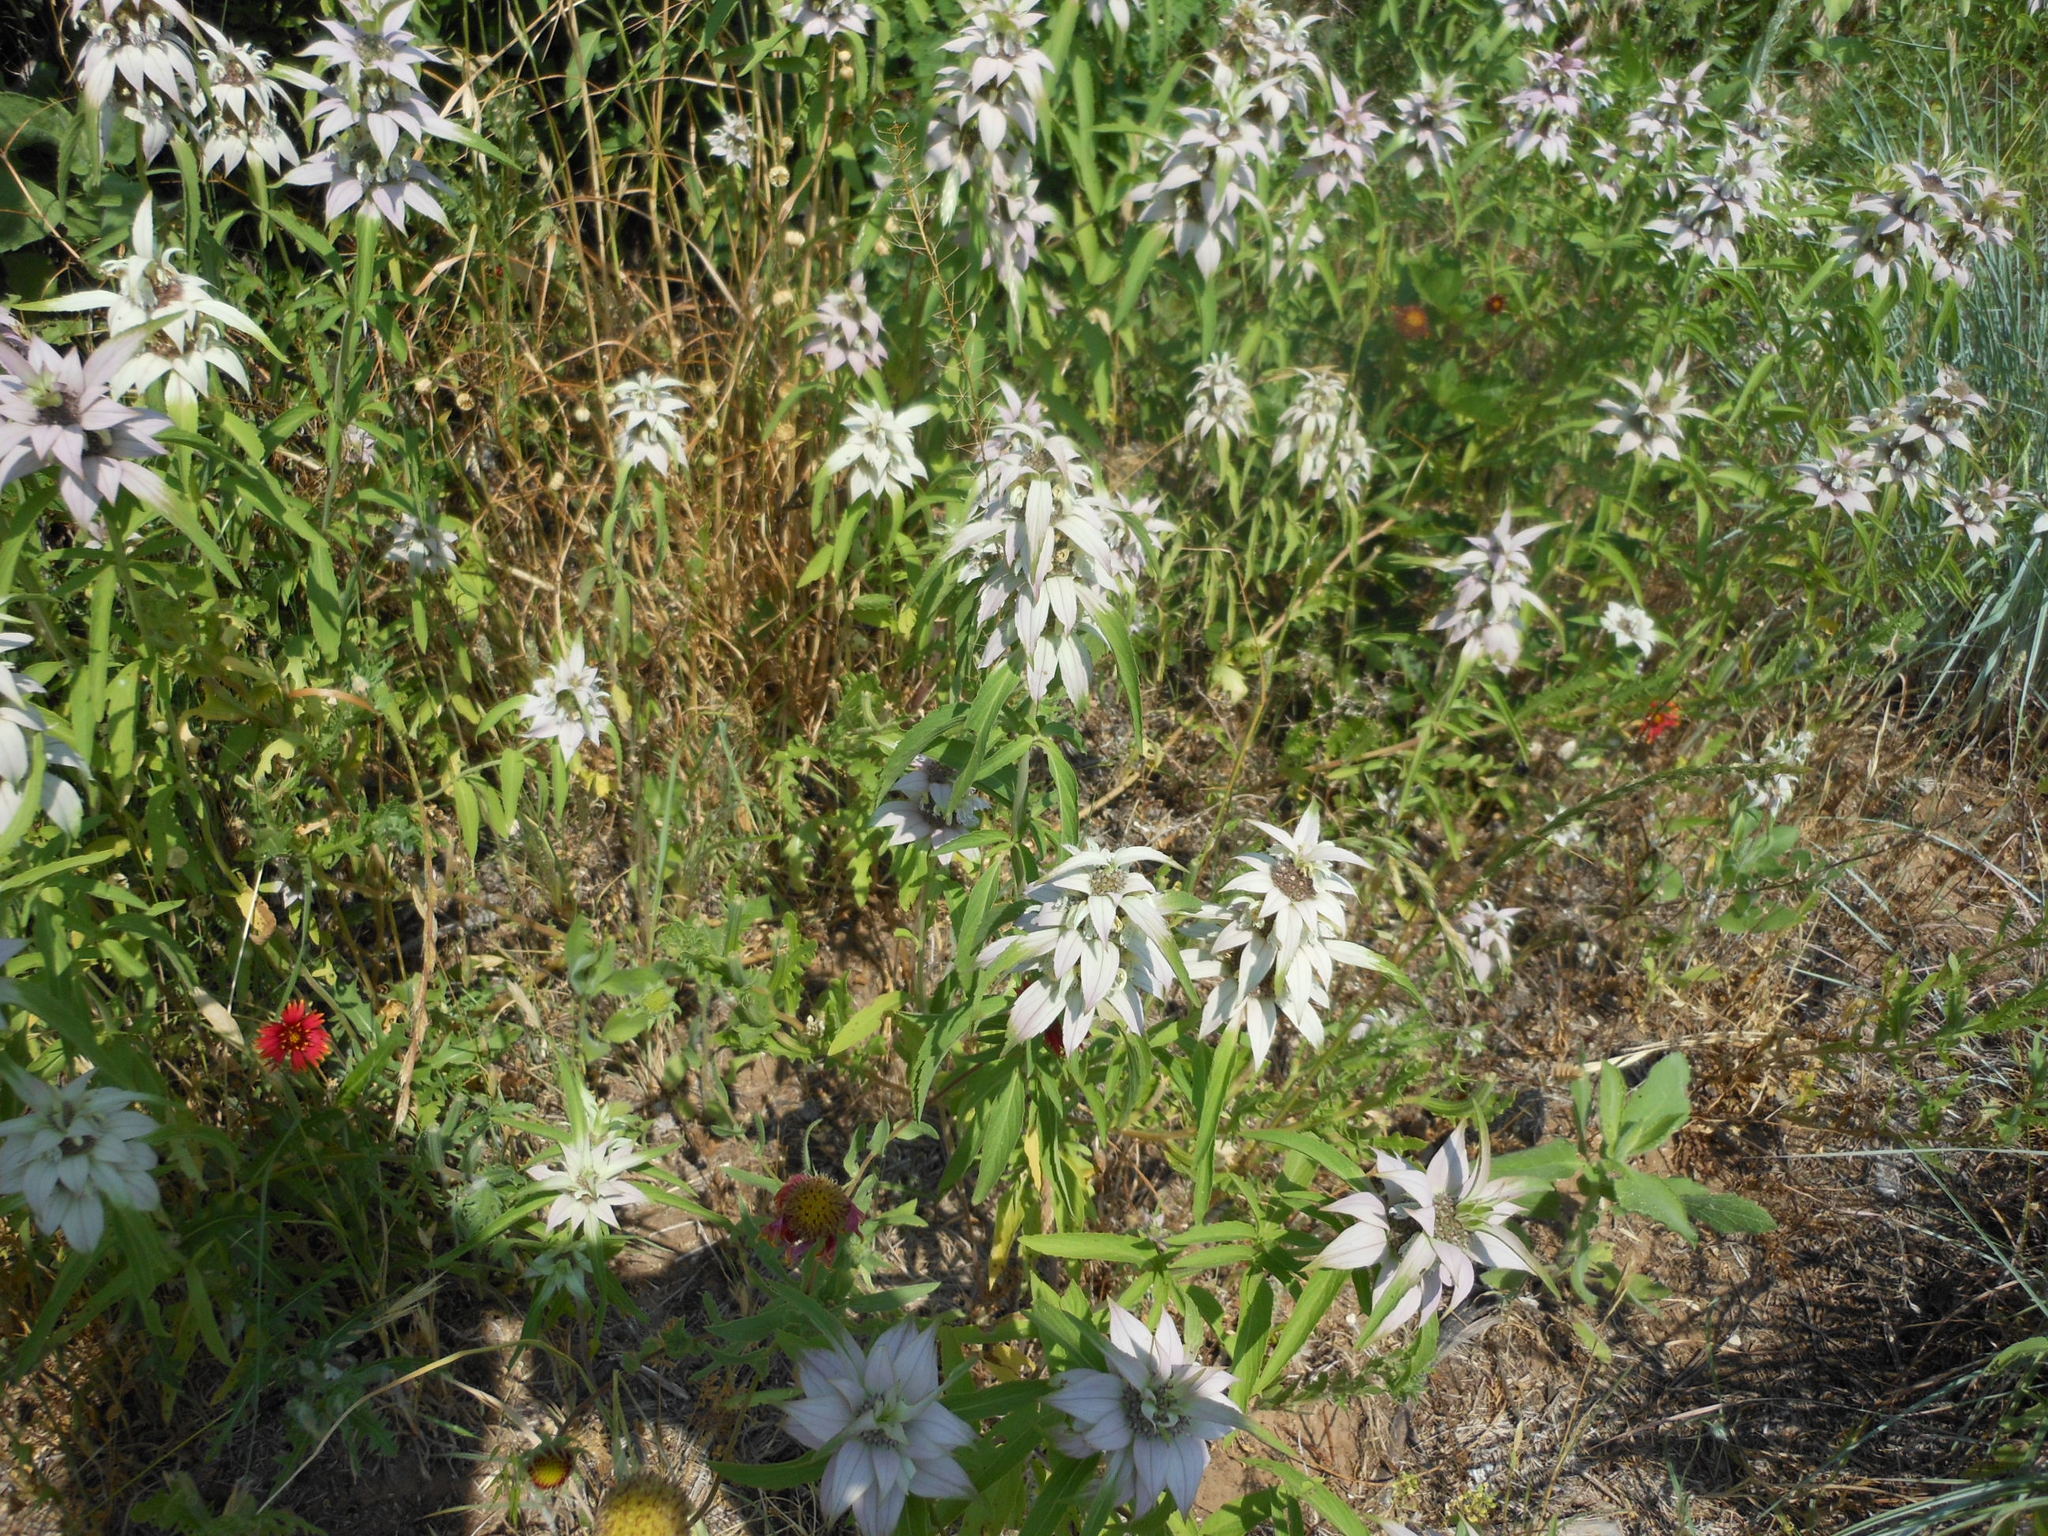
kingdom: Plantae
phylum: Tracheophyta
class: Magnoliopsida
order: Lamiales
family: Lamiaceae
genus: Monarda
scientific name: Monarda punctata
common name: Dotted monarda
